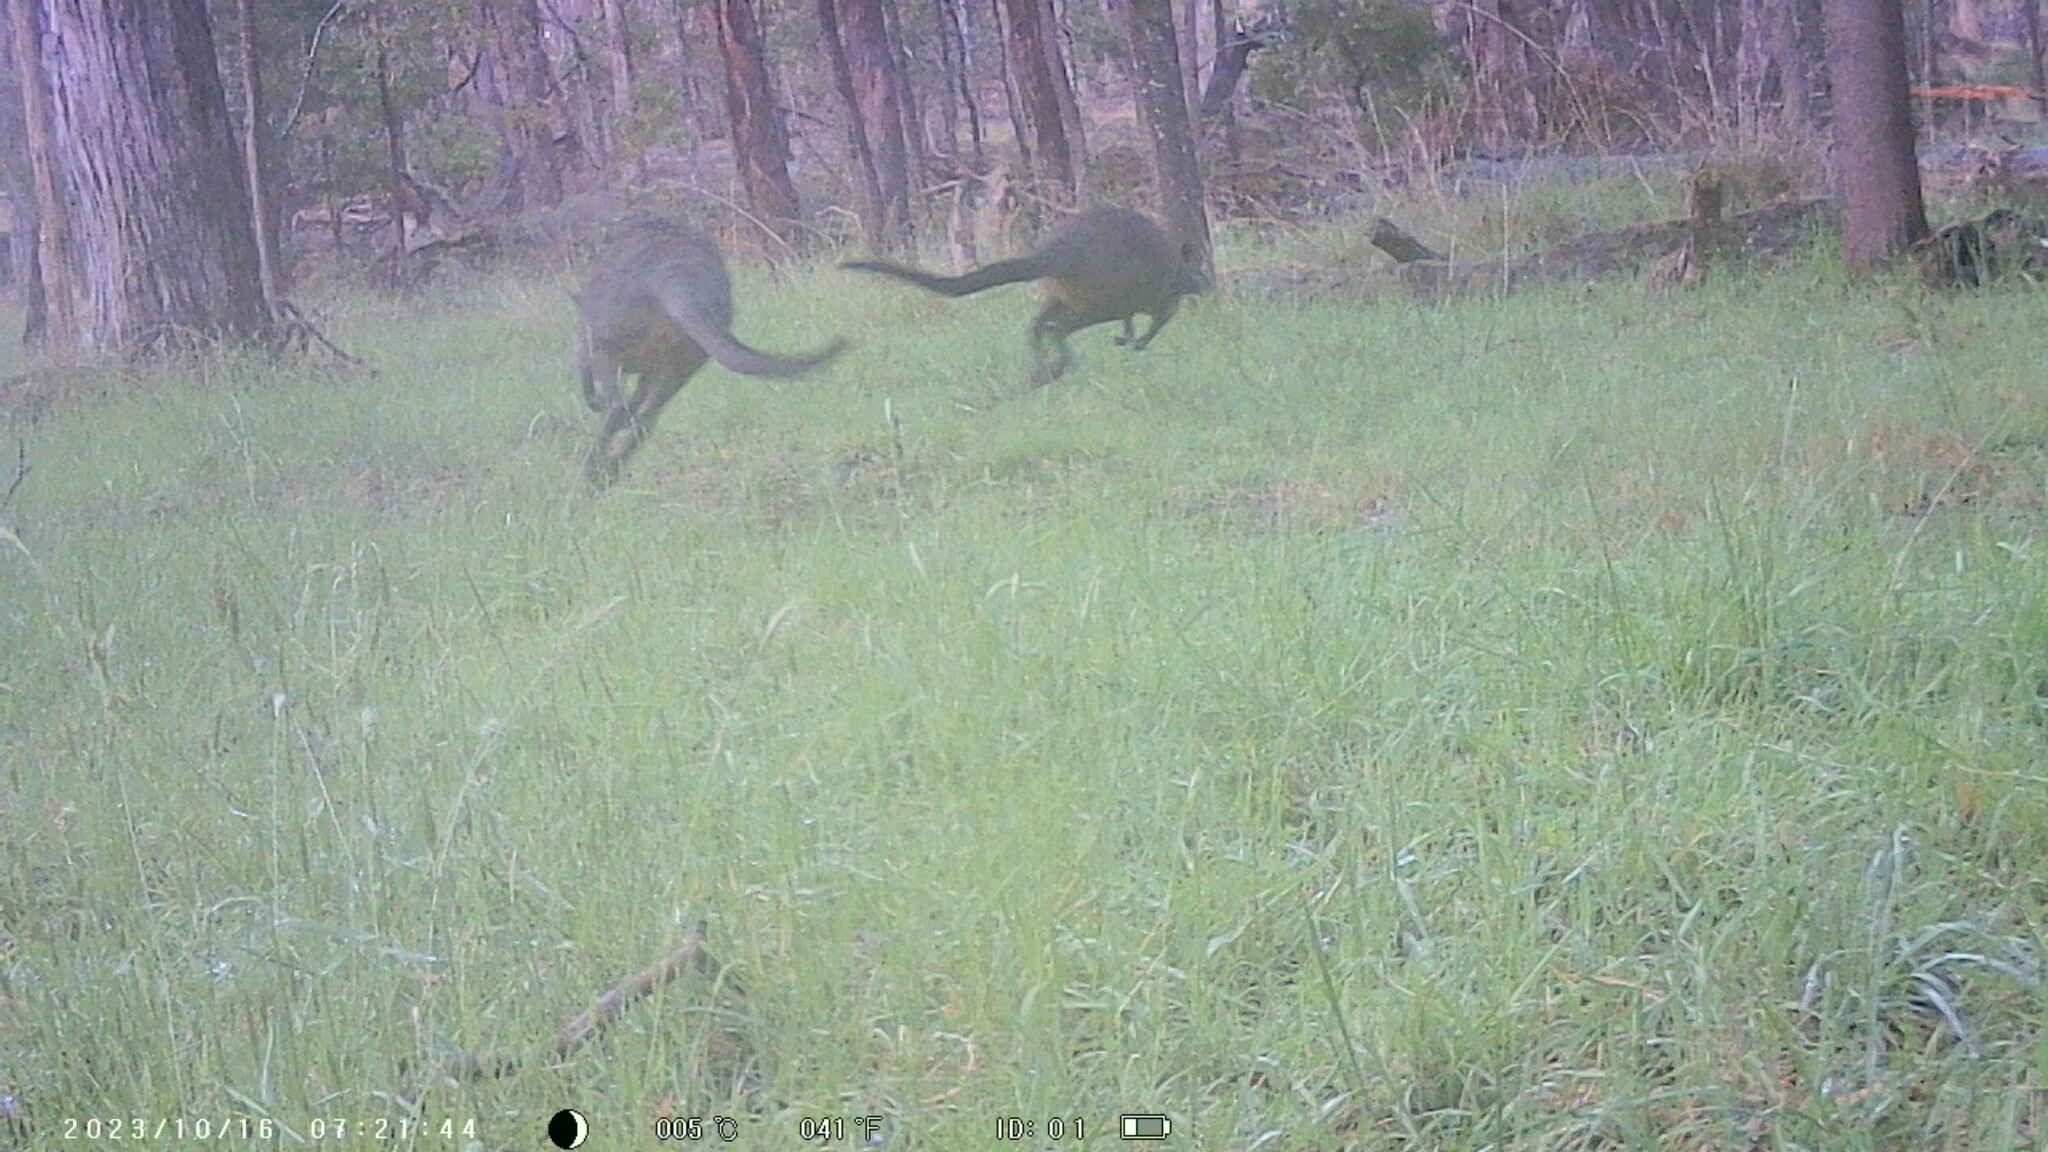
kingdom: Animalia
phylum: Chordata
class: Mammalia
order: Diprotodontia
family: Macropodidae
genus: Wallabia
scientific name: Wallabia bicolor
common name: Swamp wallaby
